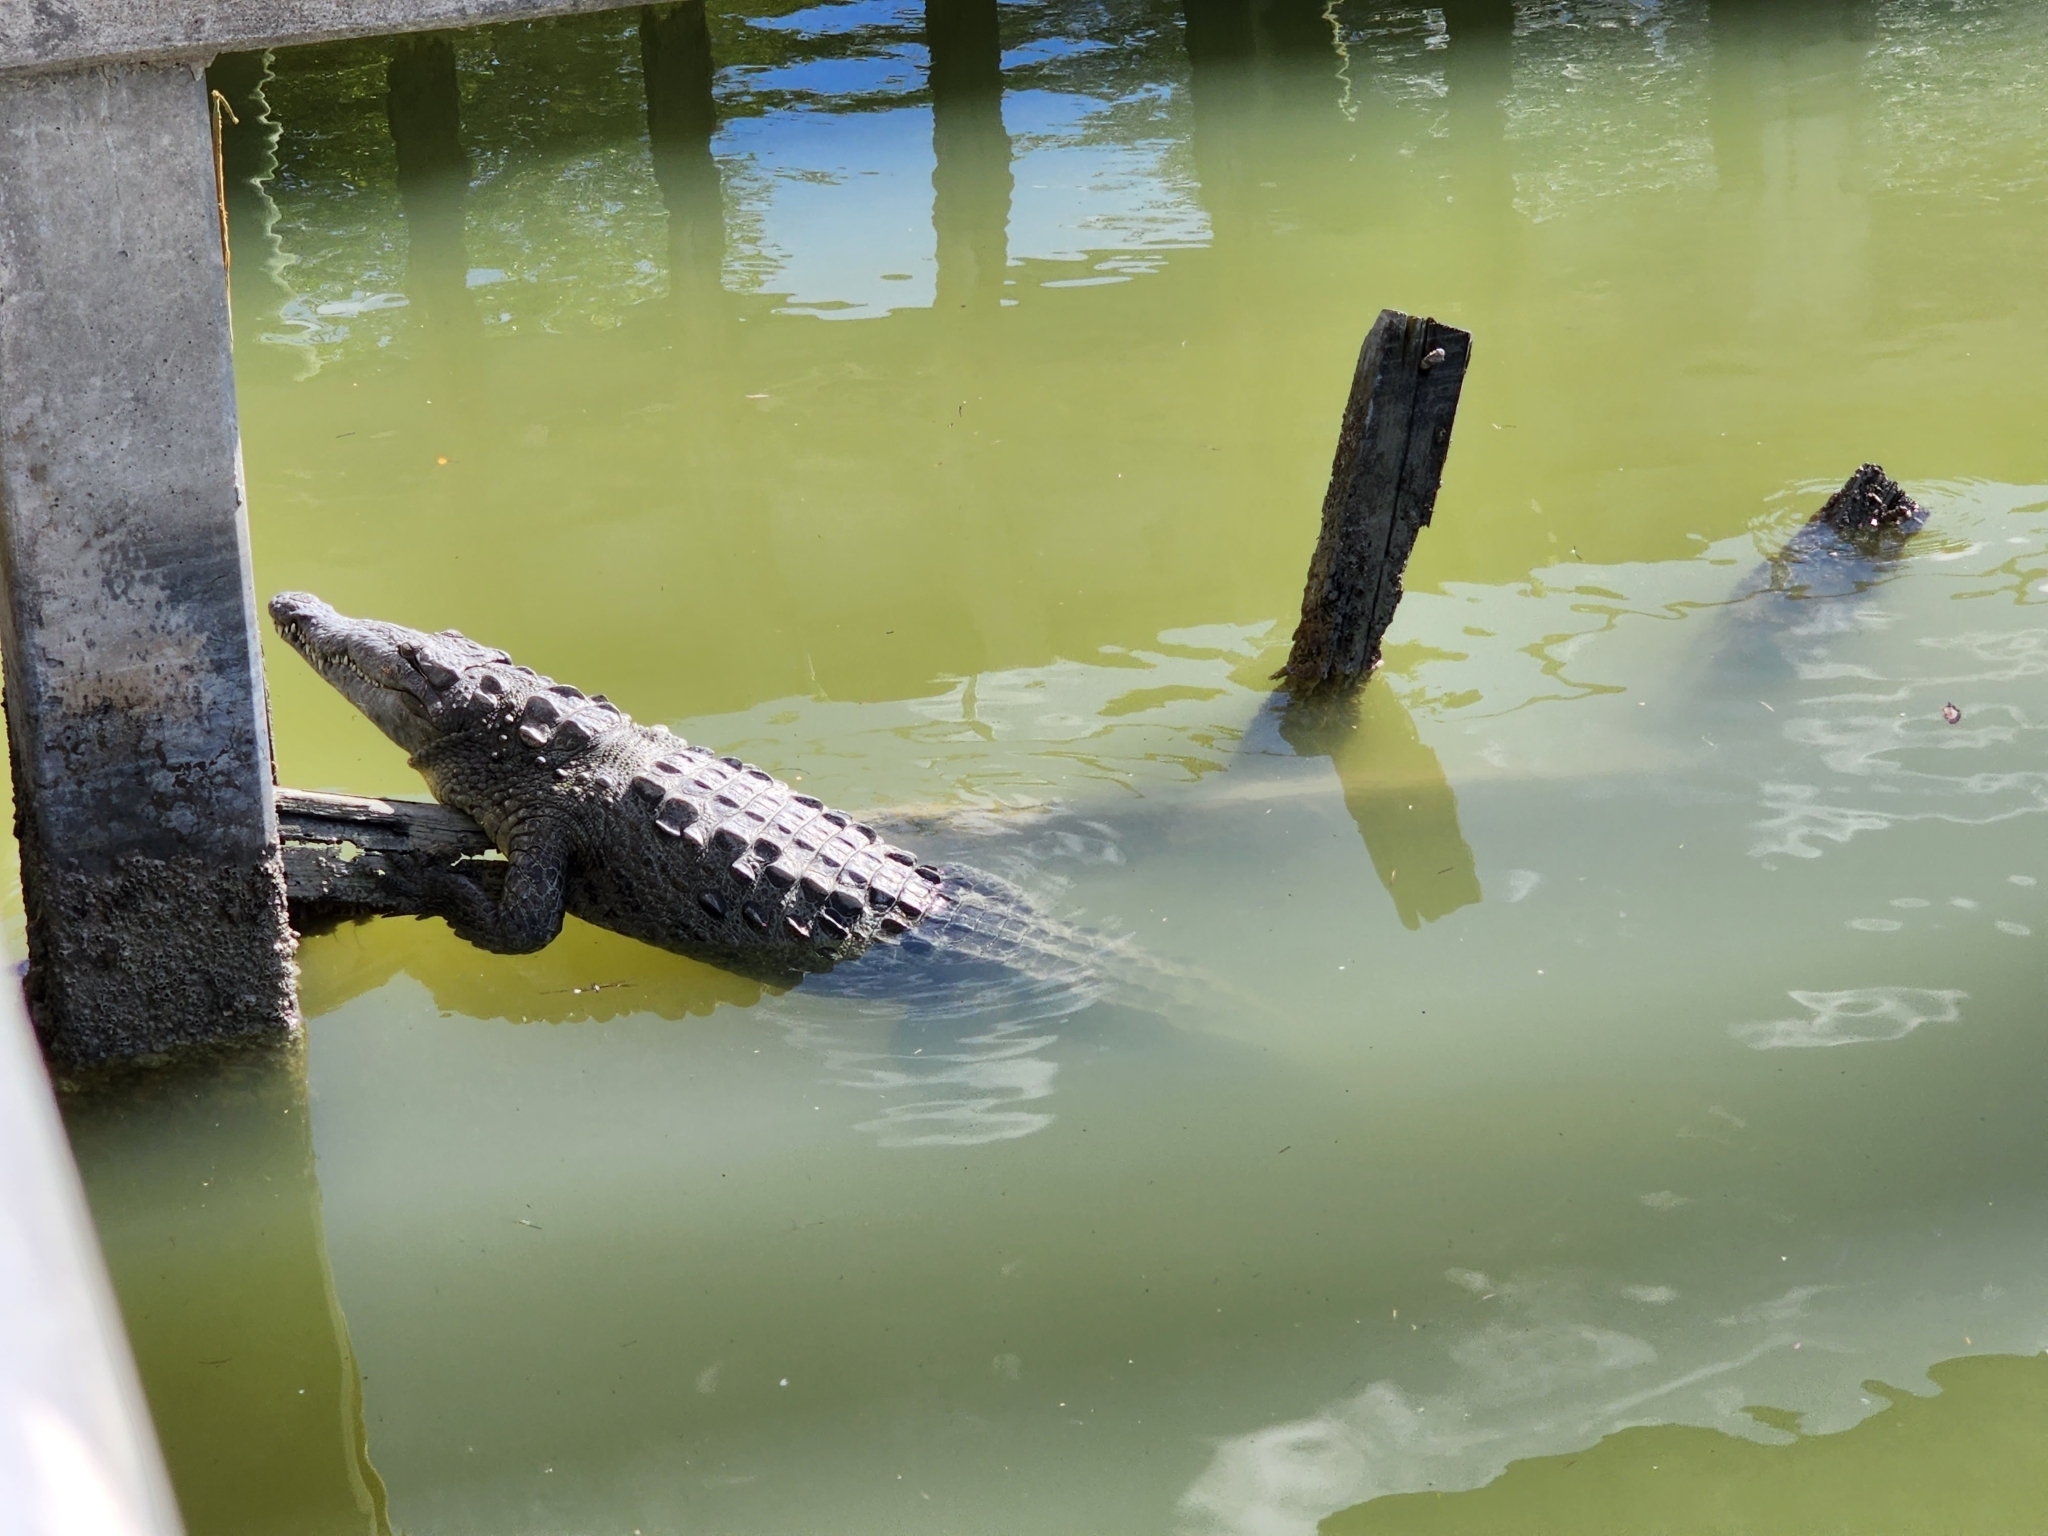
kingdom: Animalia
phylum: Chordata
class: Crocodylia
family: Crocodylidae
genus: Crocodylus
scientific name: Crocodylus acutus
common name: American crocodile
